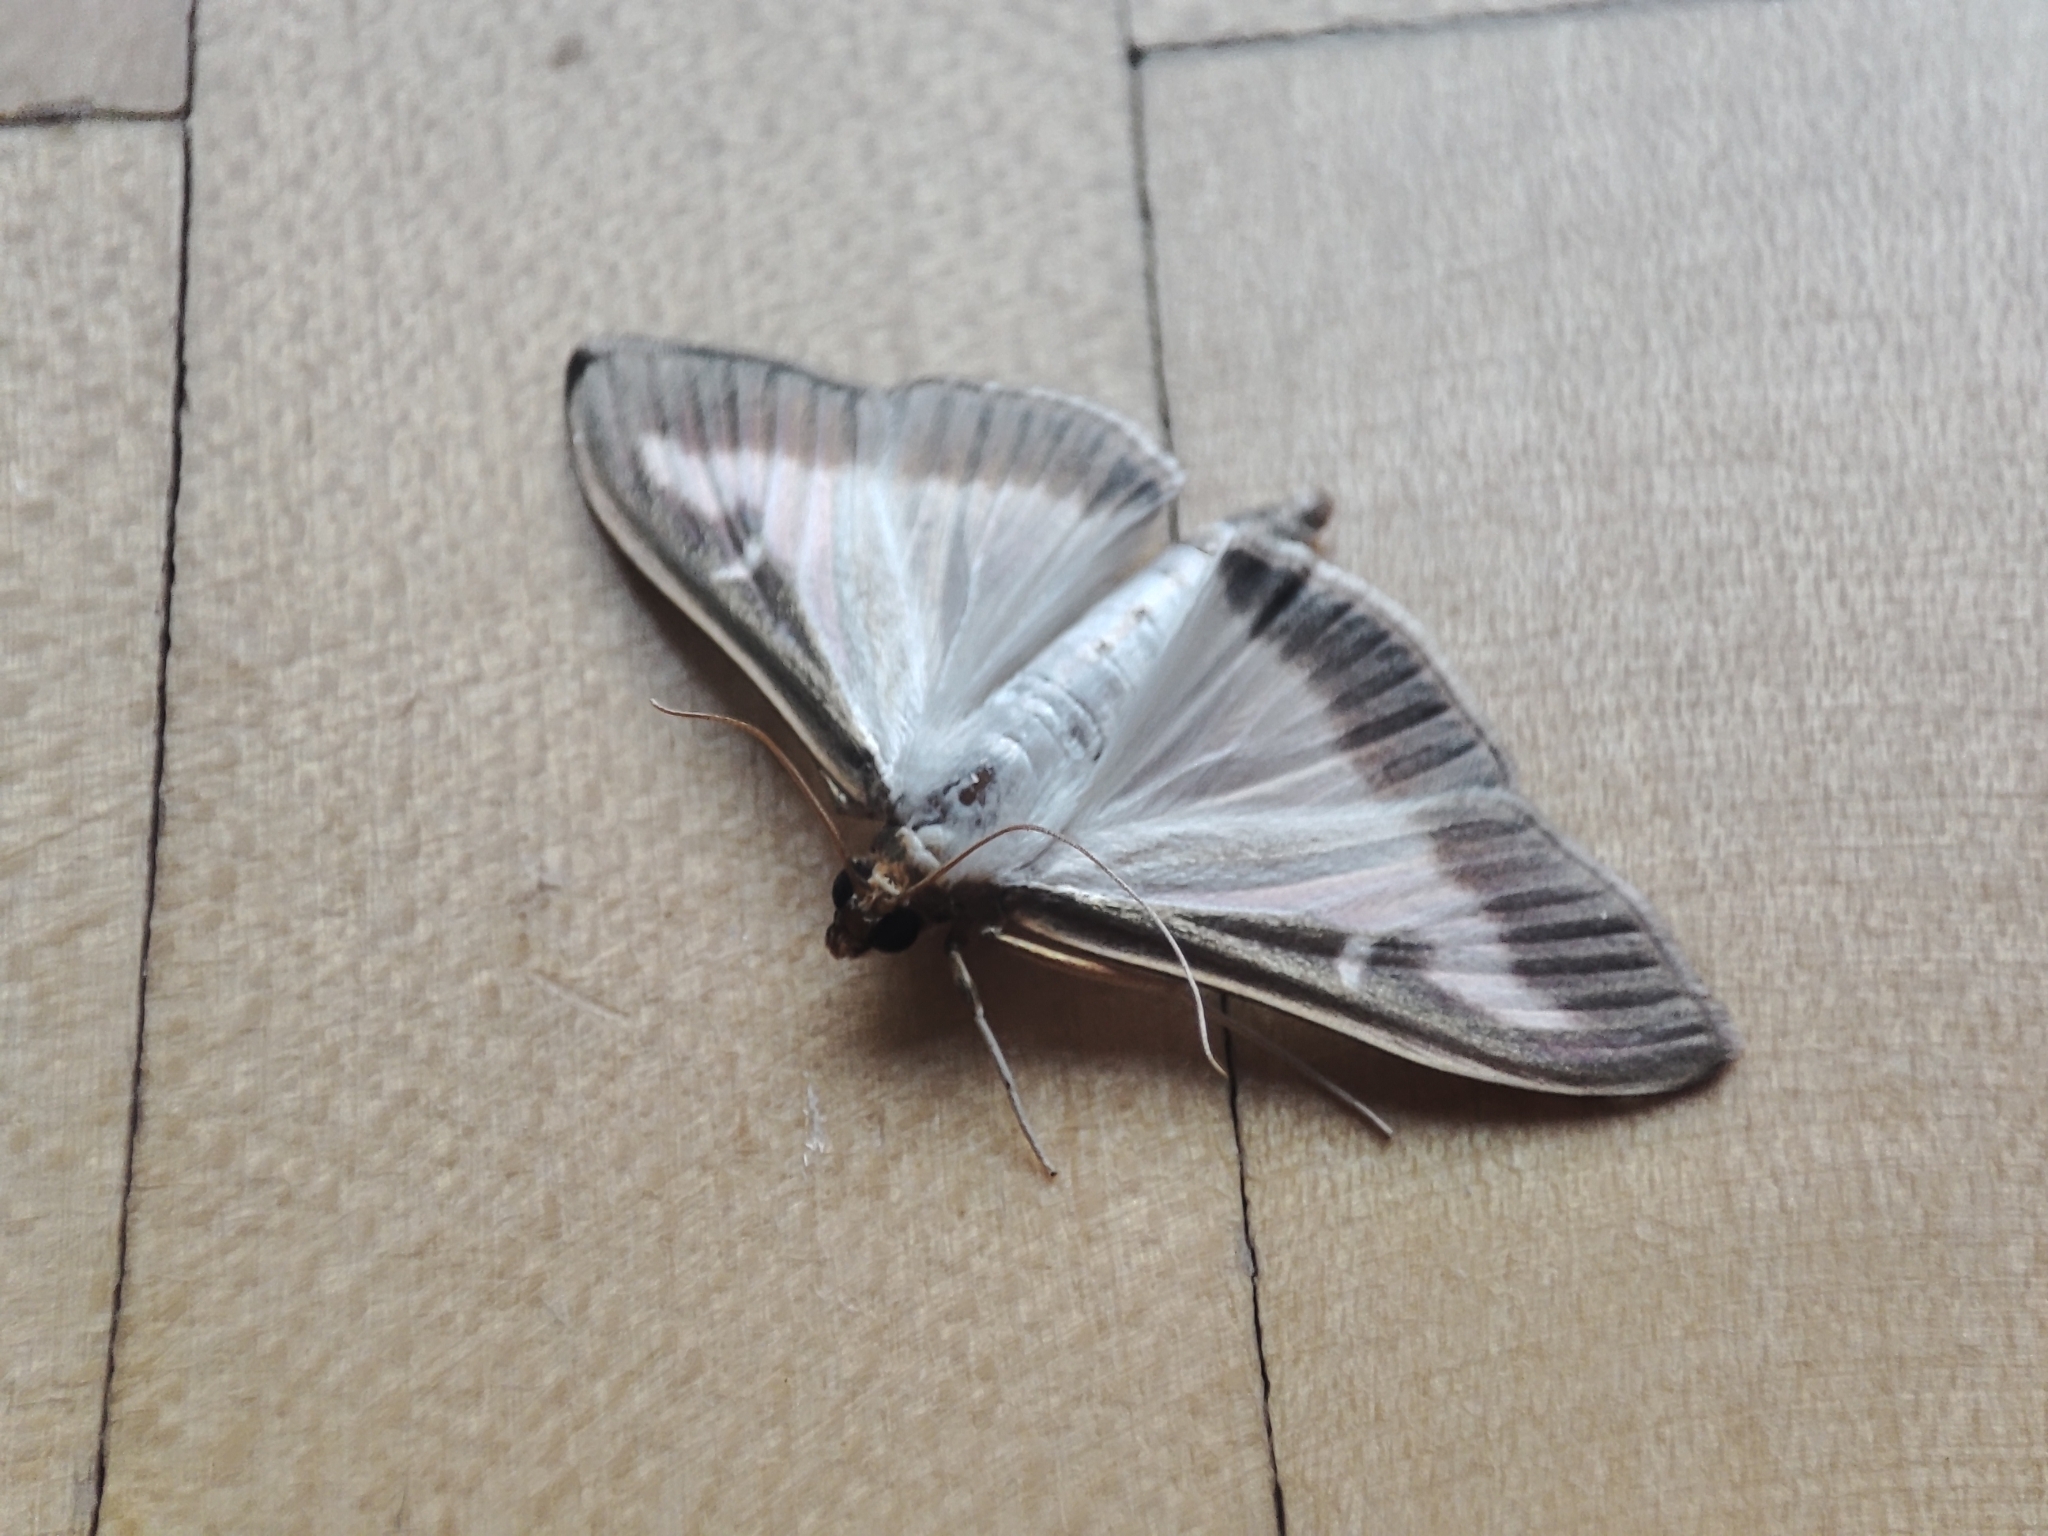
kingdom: Animalia
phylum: Arthropoda
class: Insecta
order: Lepidoptera
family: Crambidae
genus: Cydalima
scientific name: Cydalima perspectalis
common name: Box tree moth
